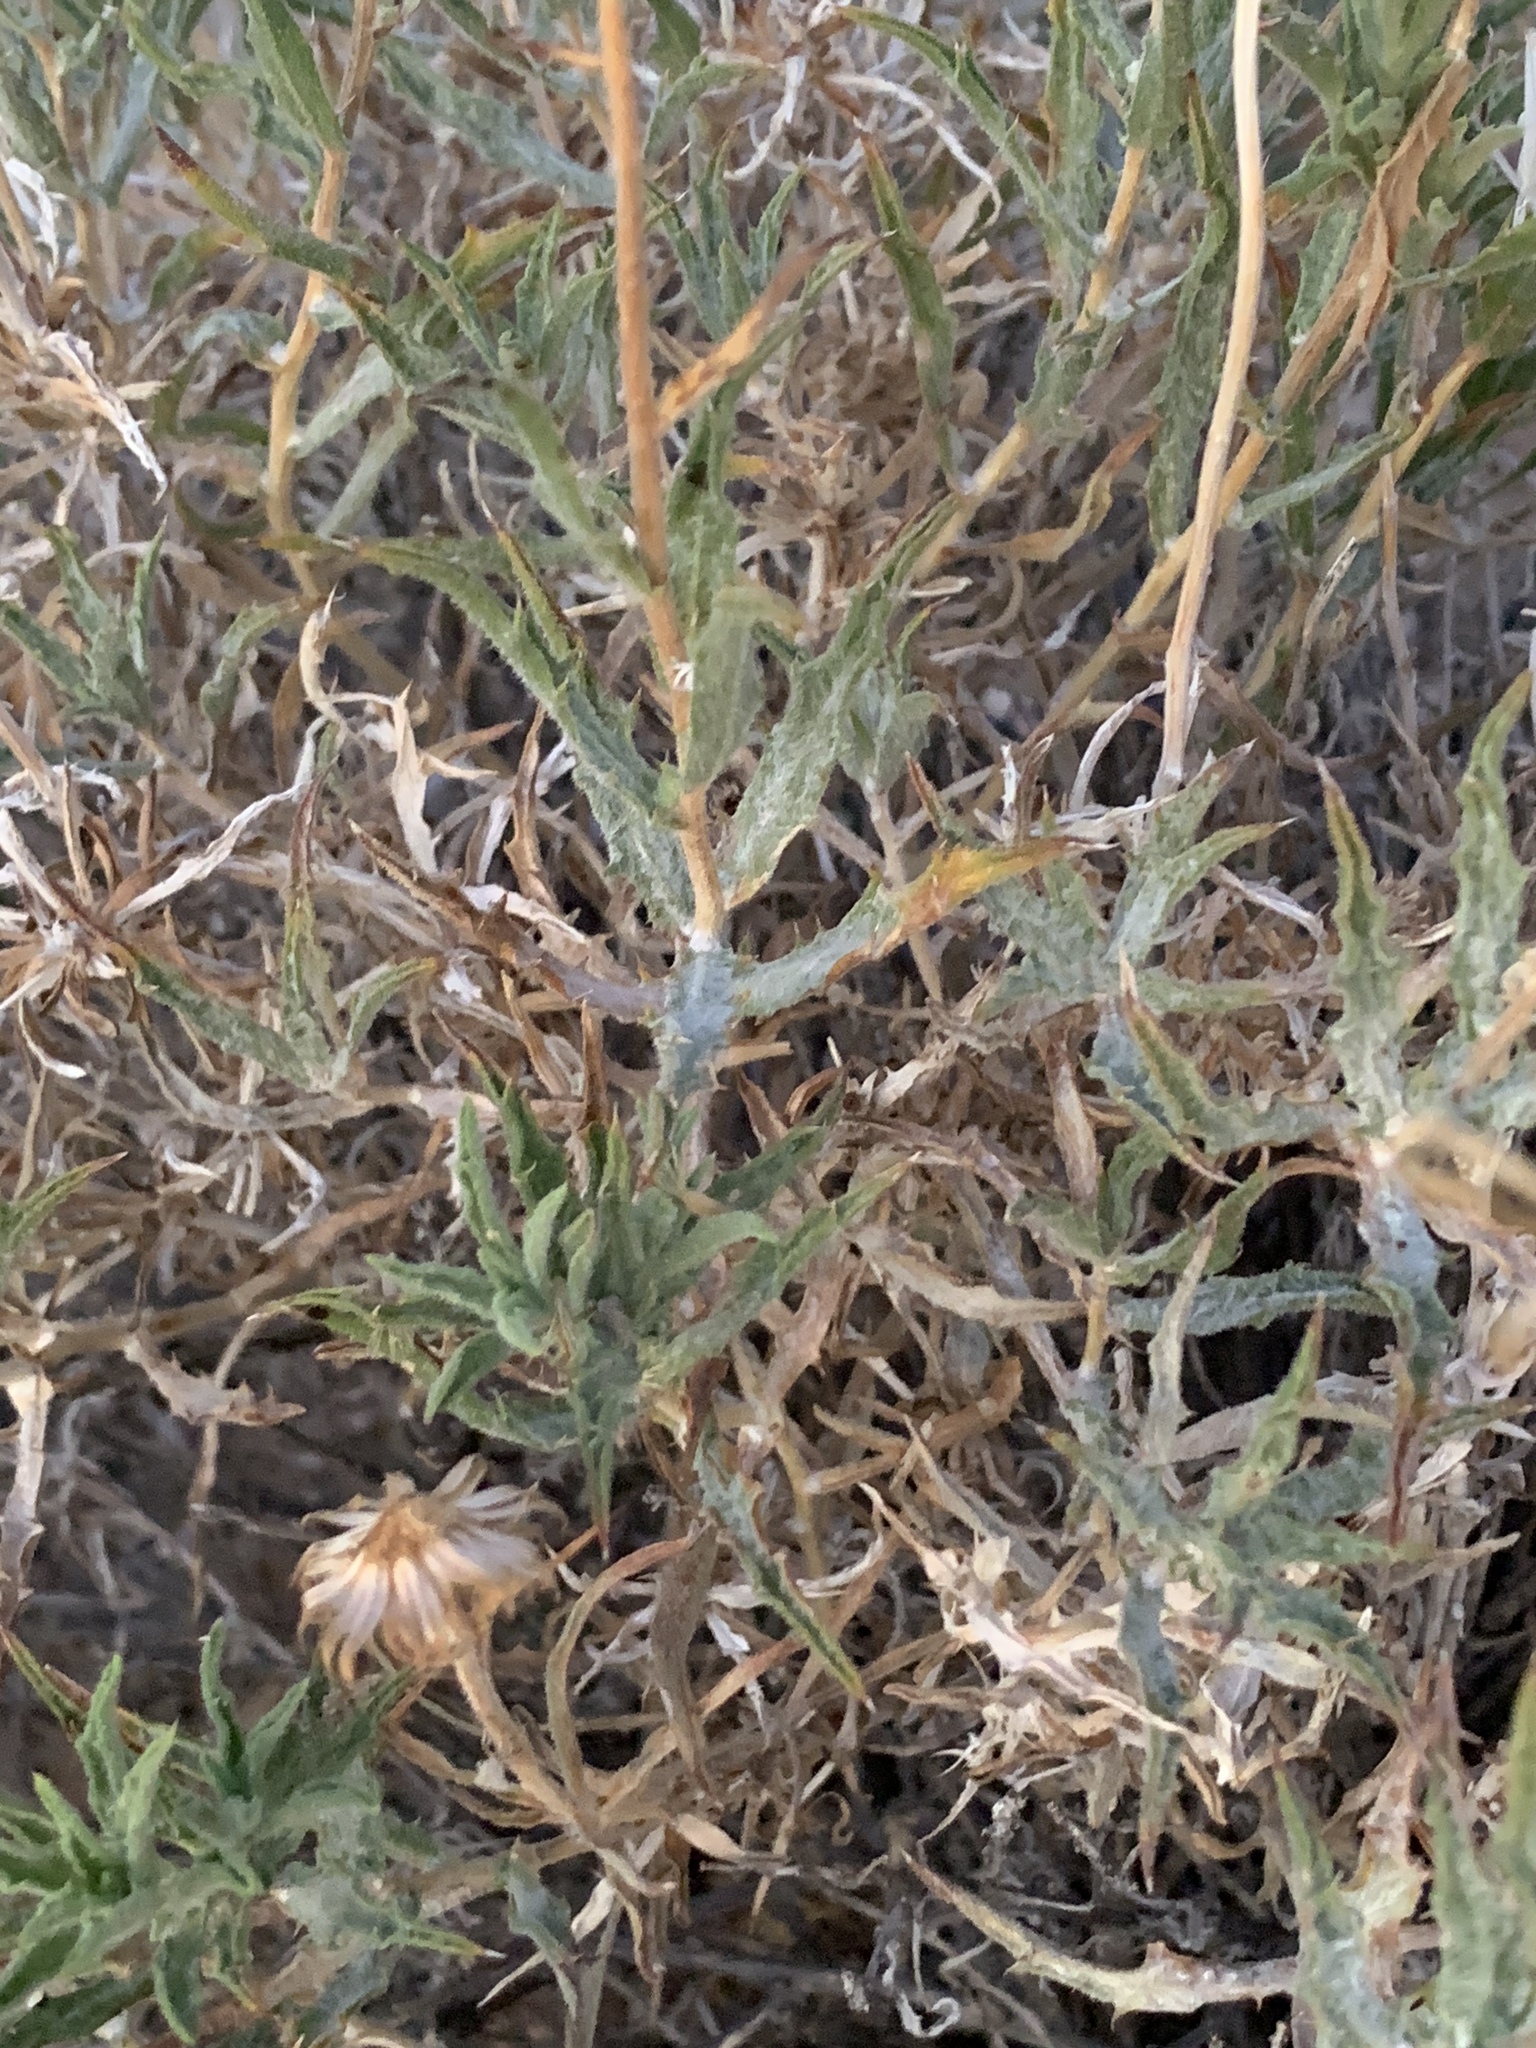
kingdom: Plantae
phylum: Tracheophyta
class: Magnoliopsida
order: Asterales
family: Asteraceae
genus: Xylorhiza
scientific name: Xylorhiza tortifolia
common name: Hurt-leaf woody-aster
